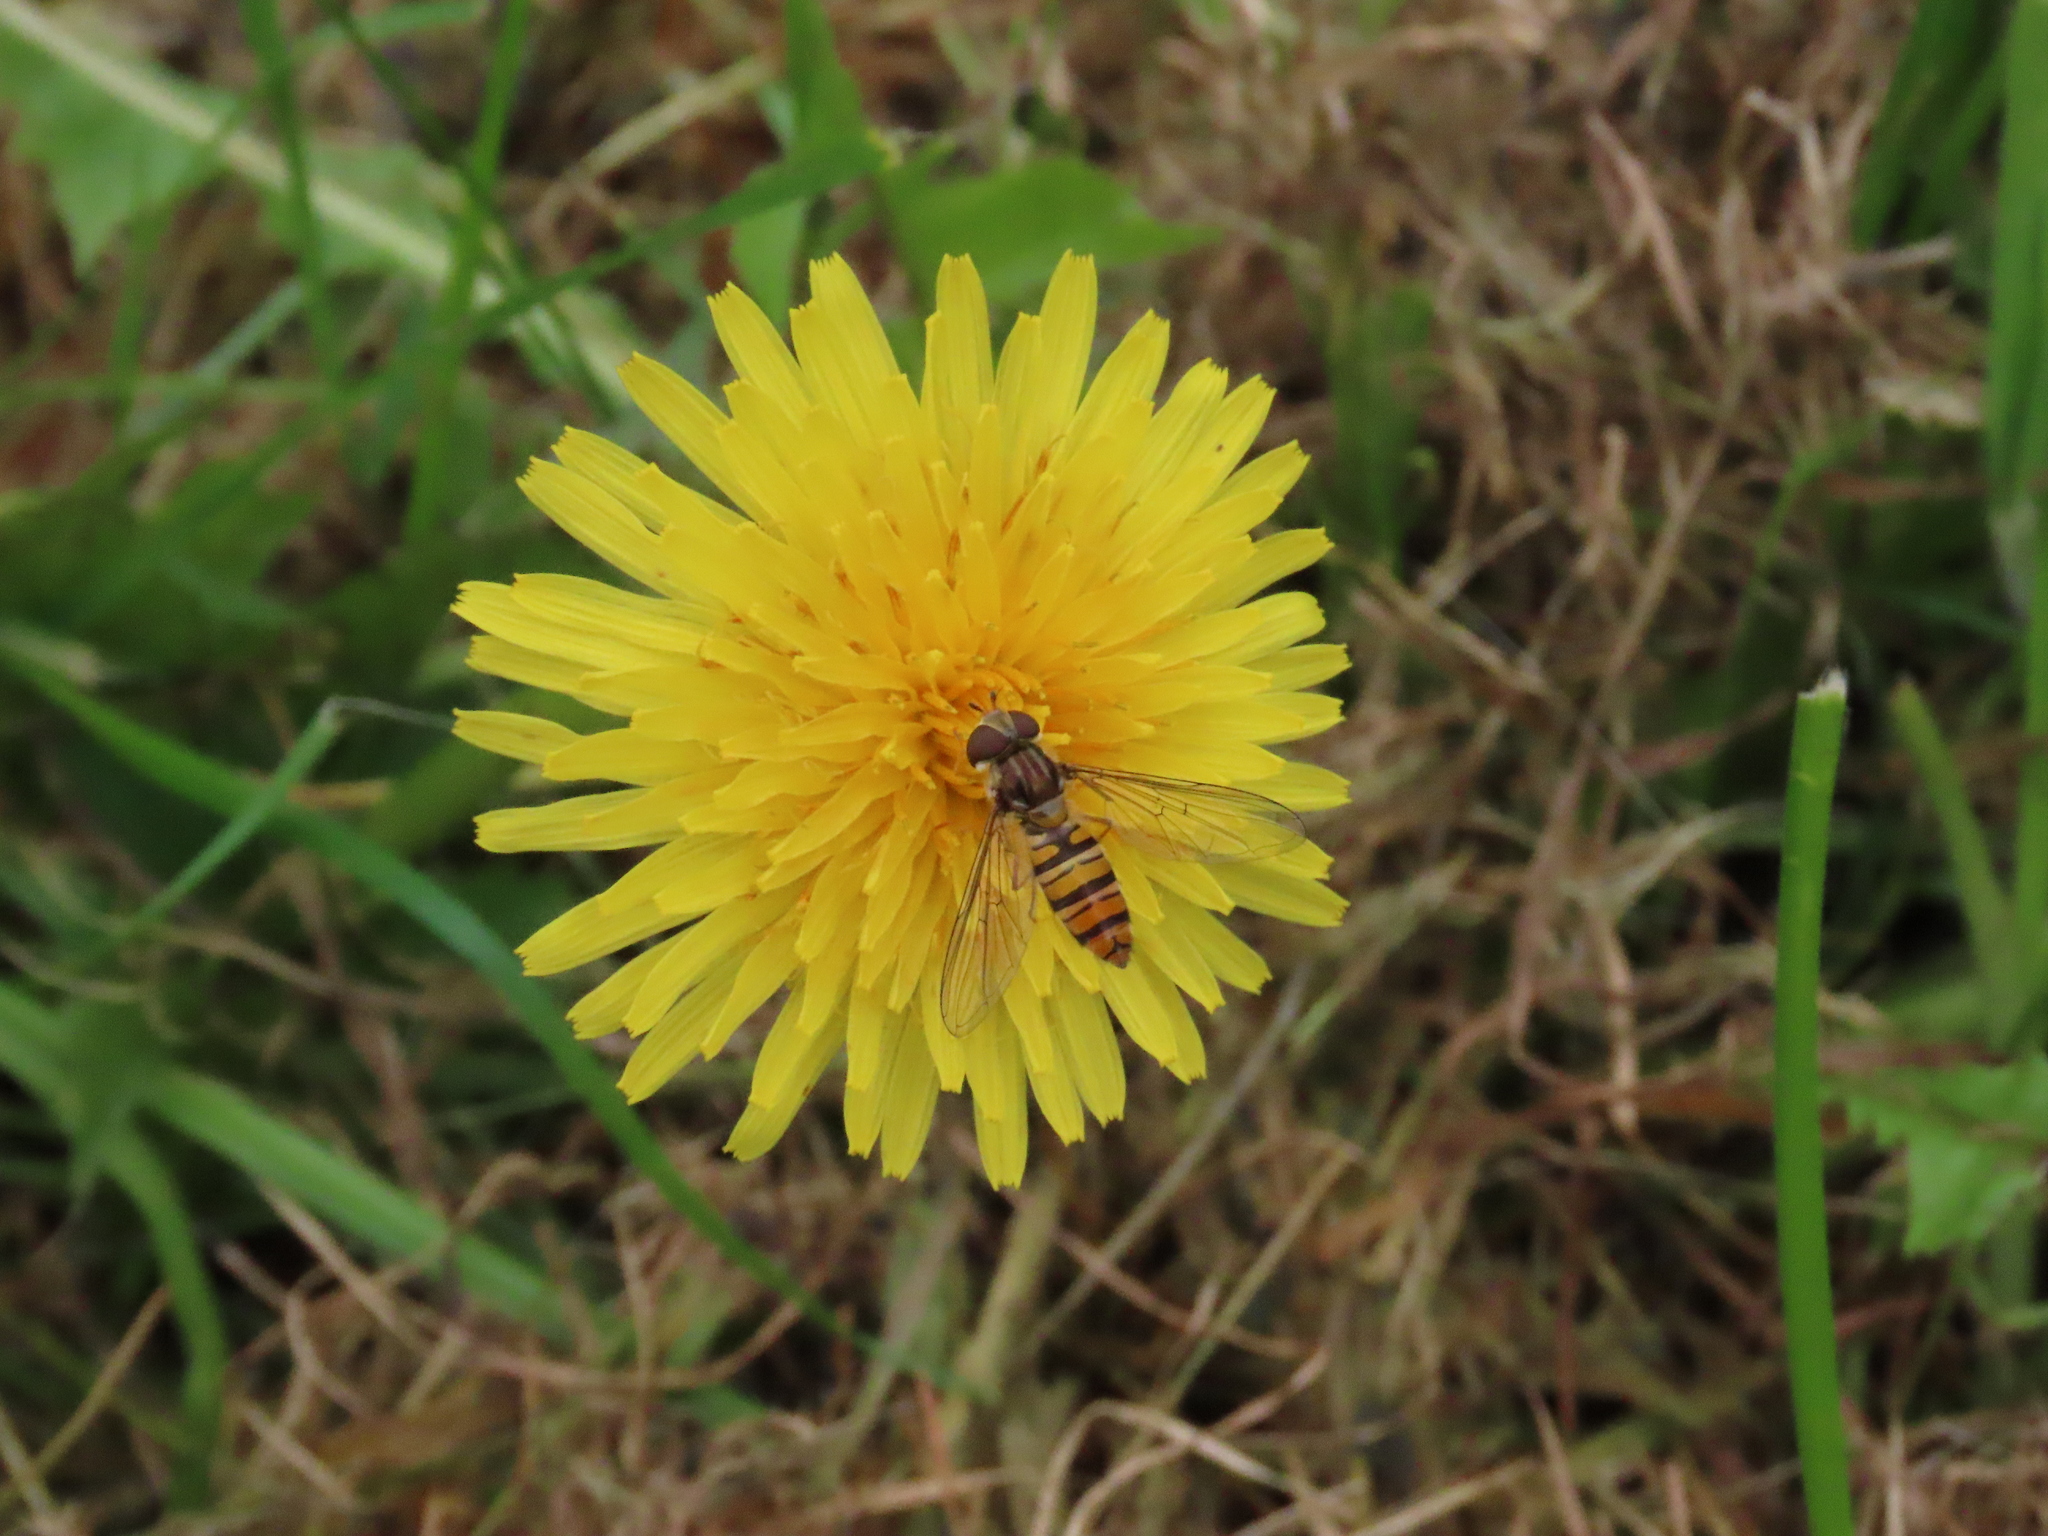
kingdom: Animalia
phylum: Arthropoda
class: Insecta
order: Diptera
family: Syrphidae
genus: Episyrphus
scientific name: Episyrphus balteatus
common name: Marmalade hoverfly
